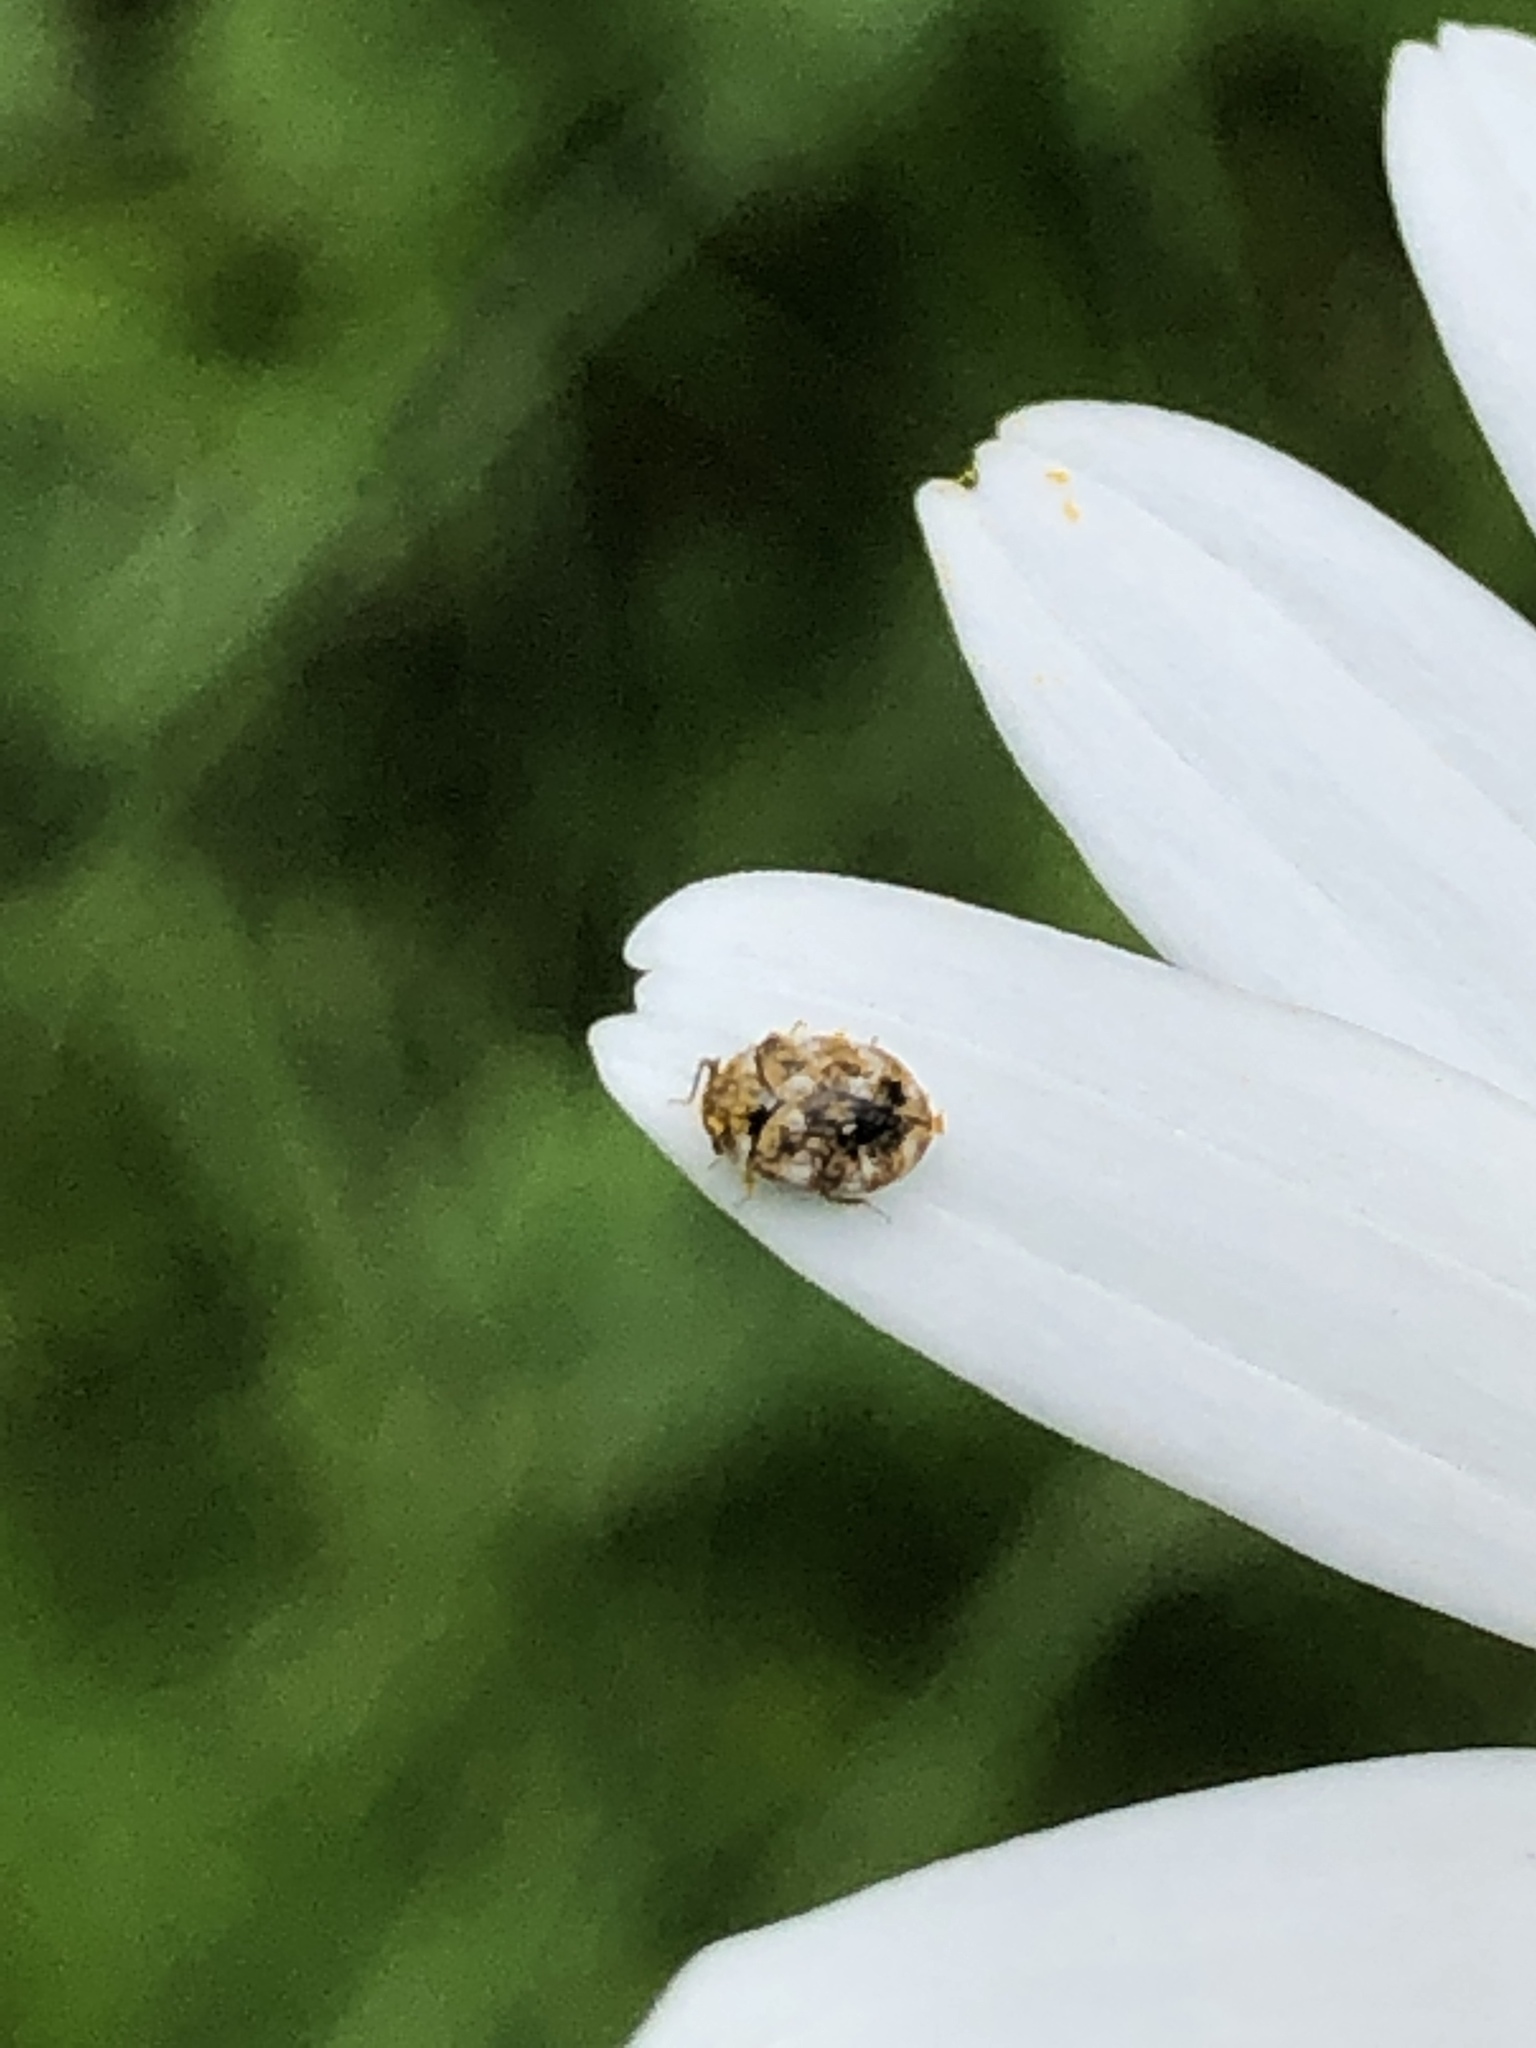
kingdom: Animalia
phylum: Arthropoda
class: Insecta
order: Coleoptera
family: Dermestidae
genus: Anthrenus
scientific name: Anthrenus verbasci
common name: Varied carpet beetle
